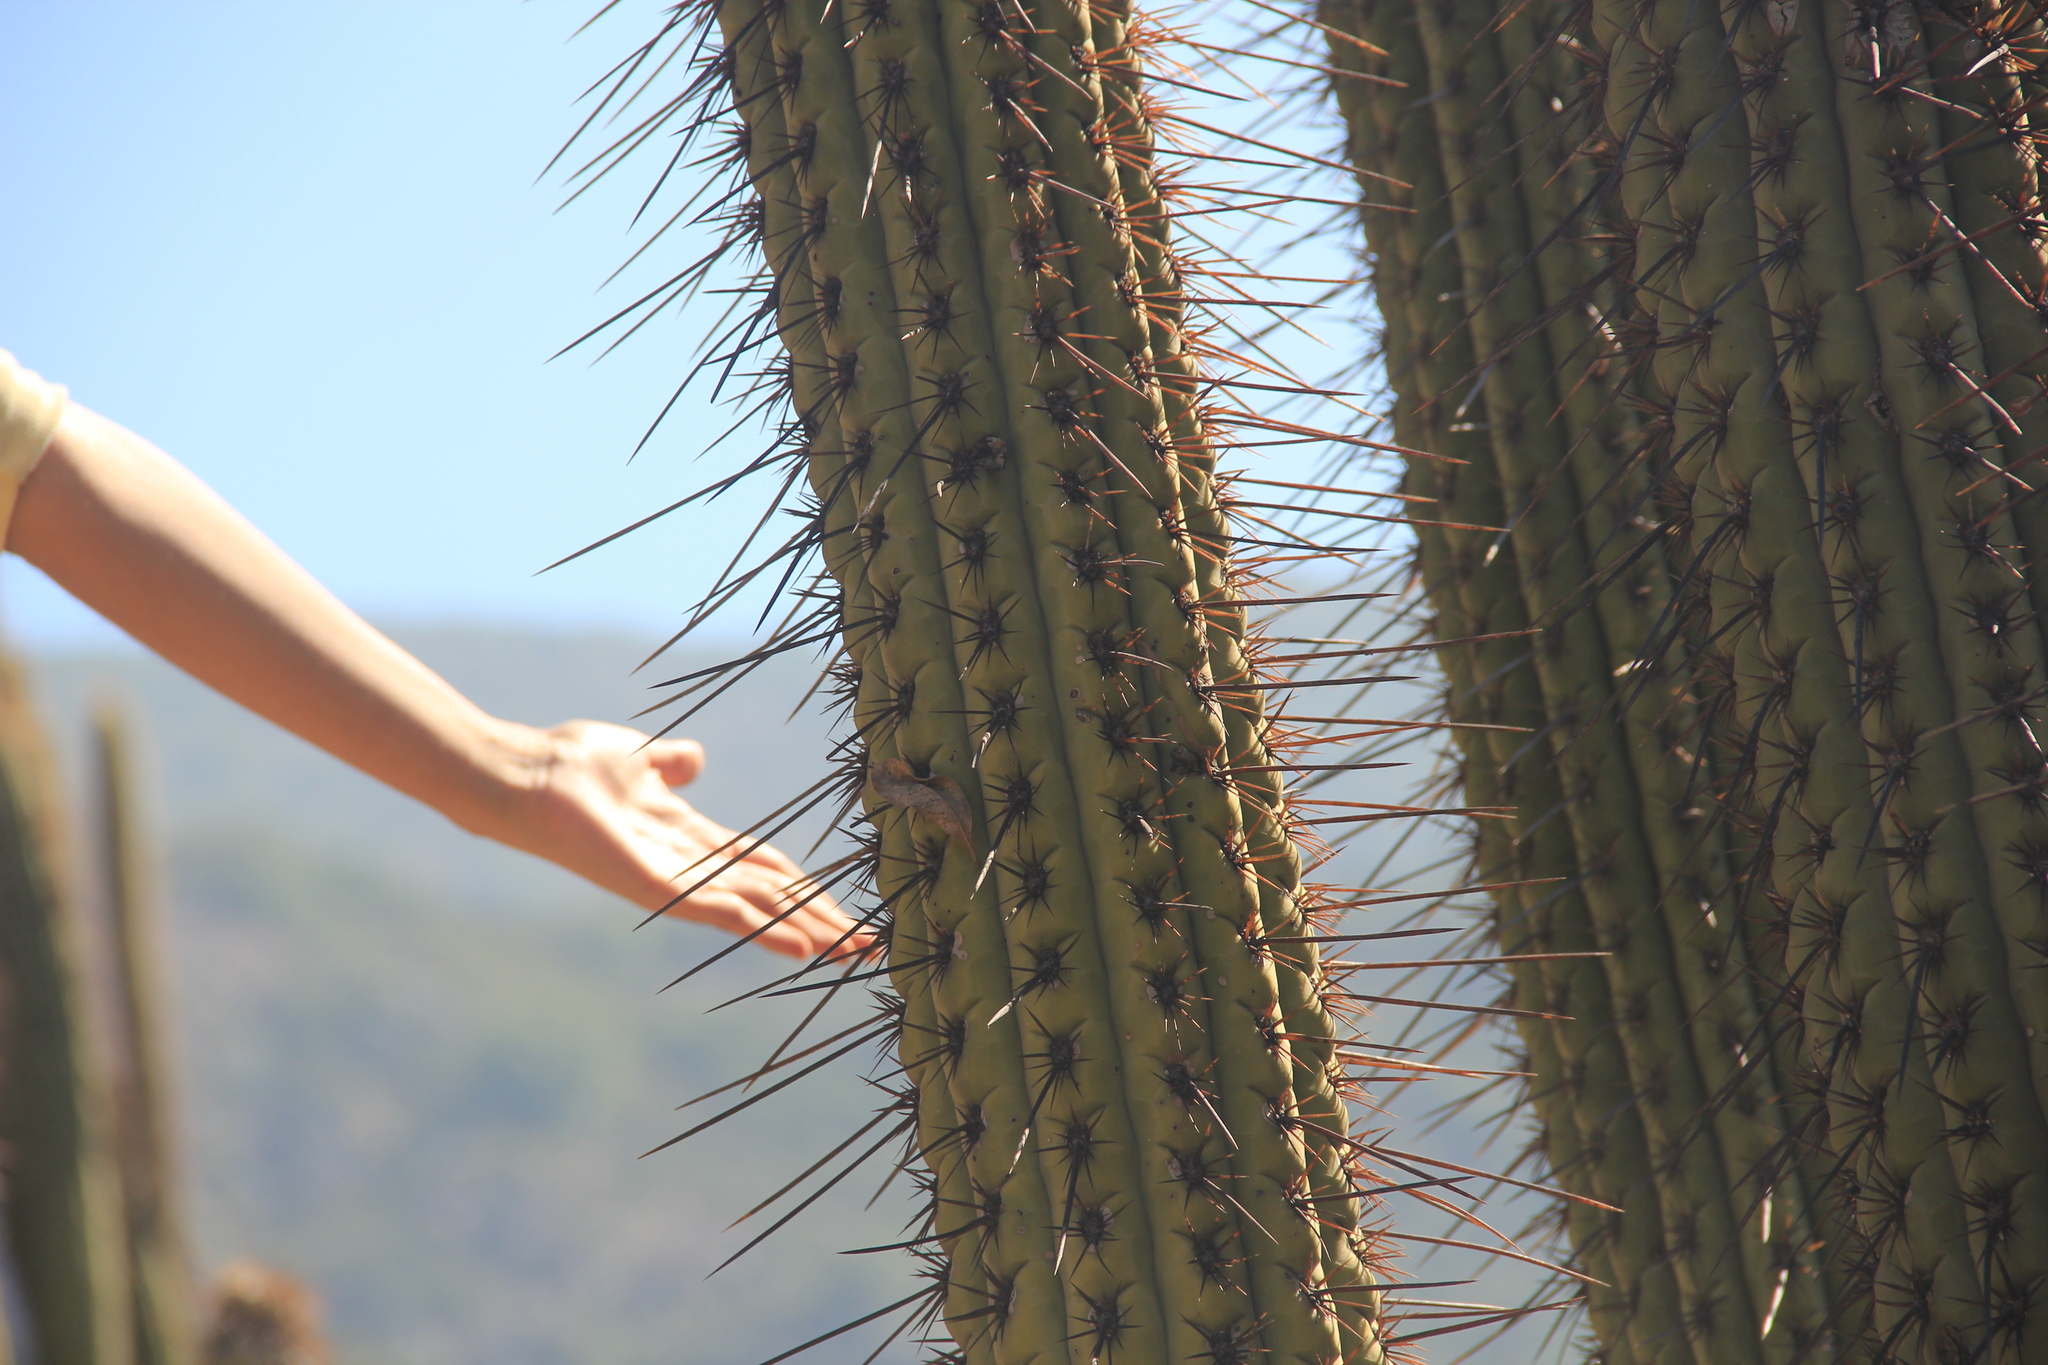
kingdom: Plantae
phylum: Tracheophyta
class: Magnoliopsida
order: Caryophyllales
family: Cactaceae
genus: Leucostele
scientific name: Leucostele chiloensis
